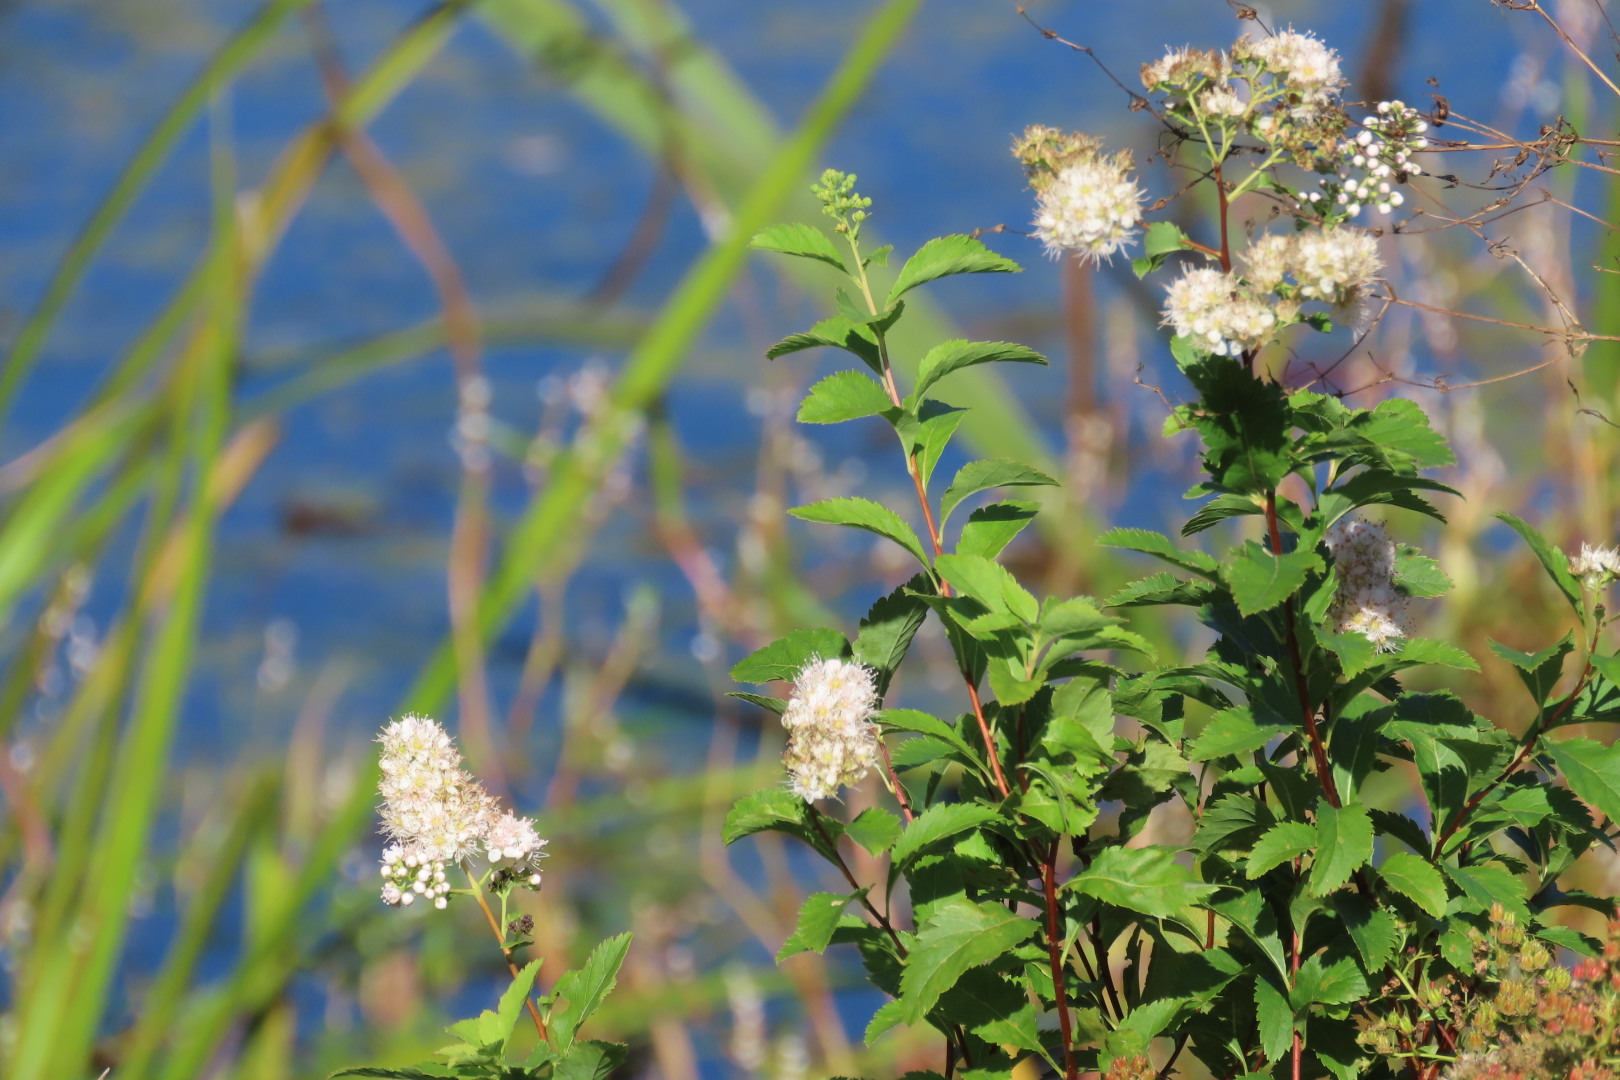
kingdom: Plantae
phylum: Tracheophyta
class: Magnoliopsida
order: Rosales
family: Rosaceae
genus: Spiraea
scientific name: Spiraea alba
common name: Pale bridewort
